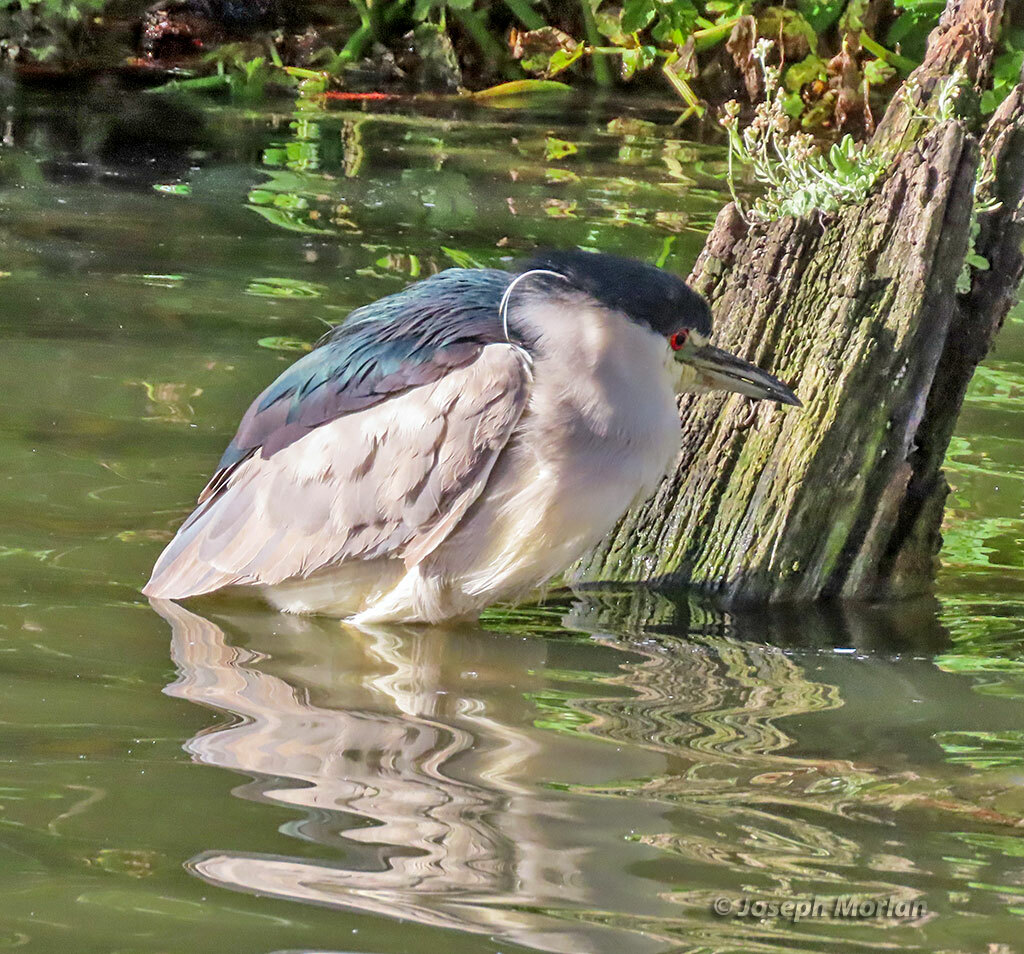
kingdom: Animalia
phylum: Chordata
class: Aves
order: Pelecaniformes
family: Ardeidae
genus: Nycticorax
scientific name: Nycticorax nycticorax
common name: Black-crowned night heron
